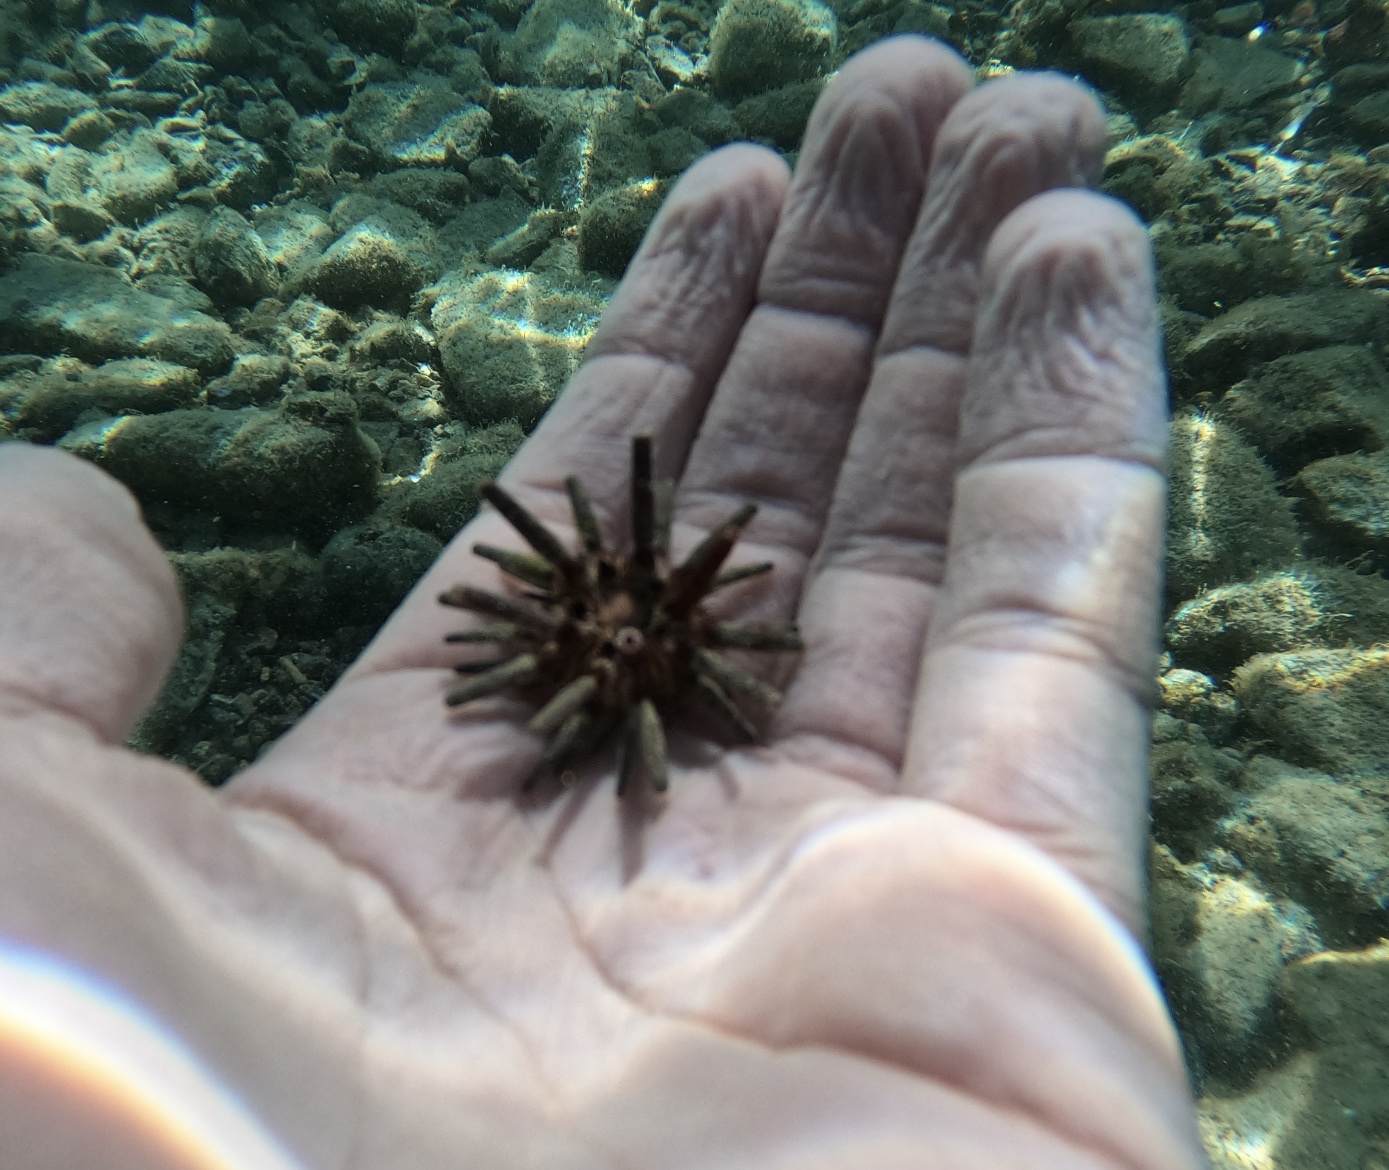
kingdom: Animalia
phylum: Echinodermata
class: Echinoidea
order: Cidaroida
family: Cidaridae
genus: Eucidaris
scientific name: Eucidaris tribuloides
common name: Slate pencil urchin
